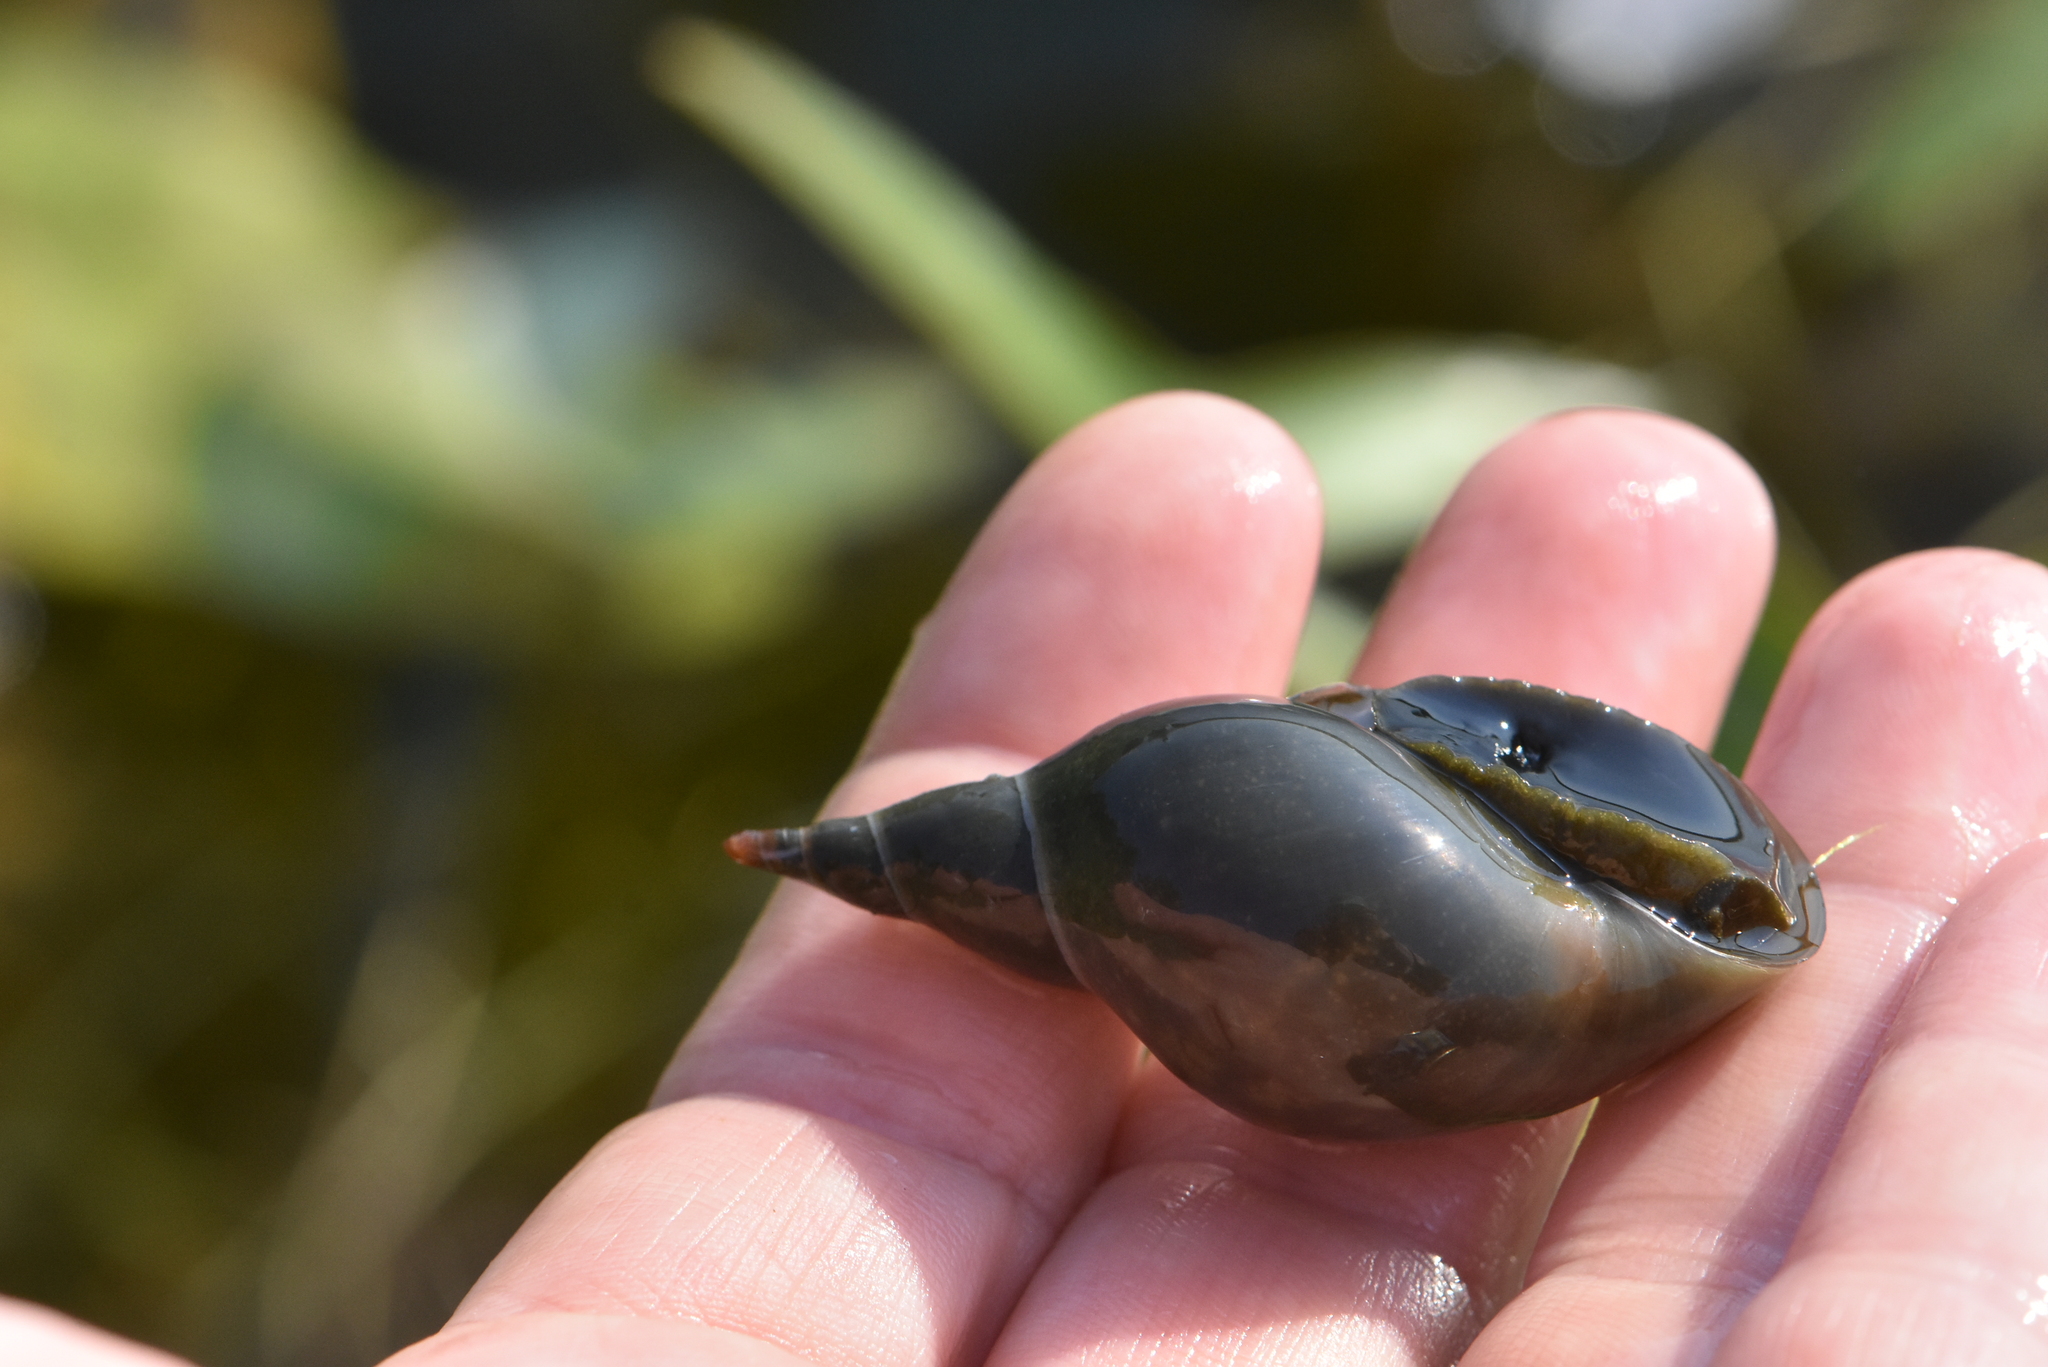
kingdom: Animalia
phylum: Mollusca
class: Gastropoda
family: Lymnaeidae
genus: Lymnaea
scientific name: Lymnaea stagnalis
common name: Great pond snail
